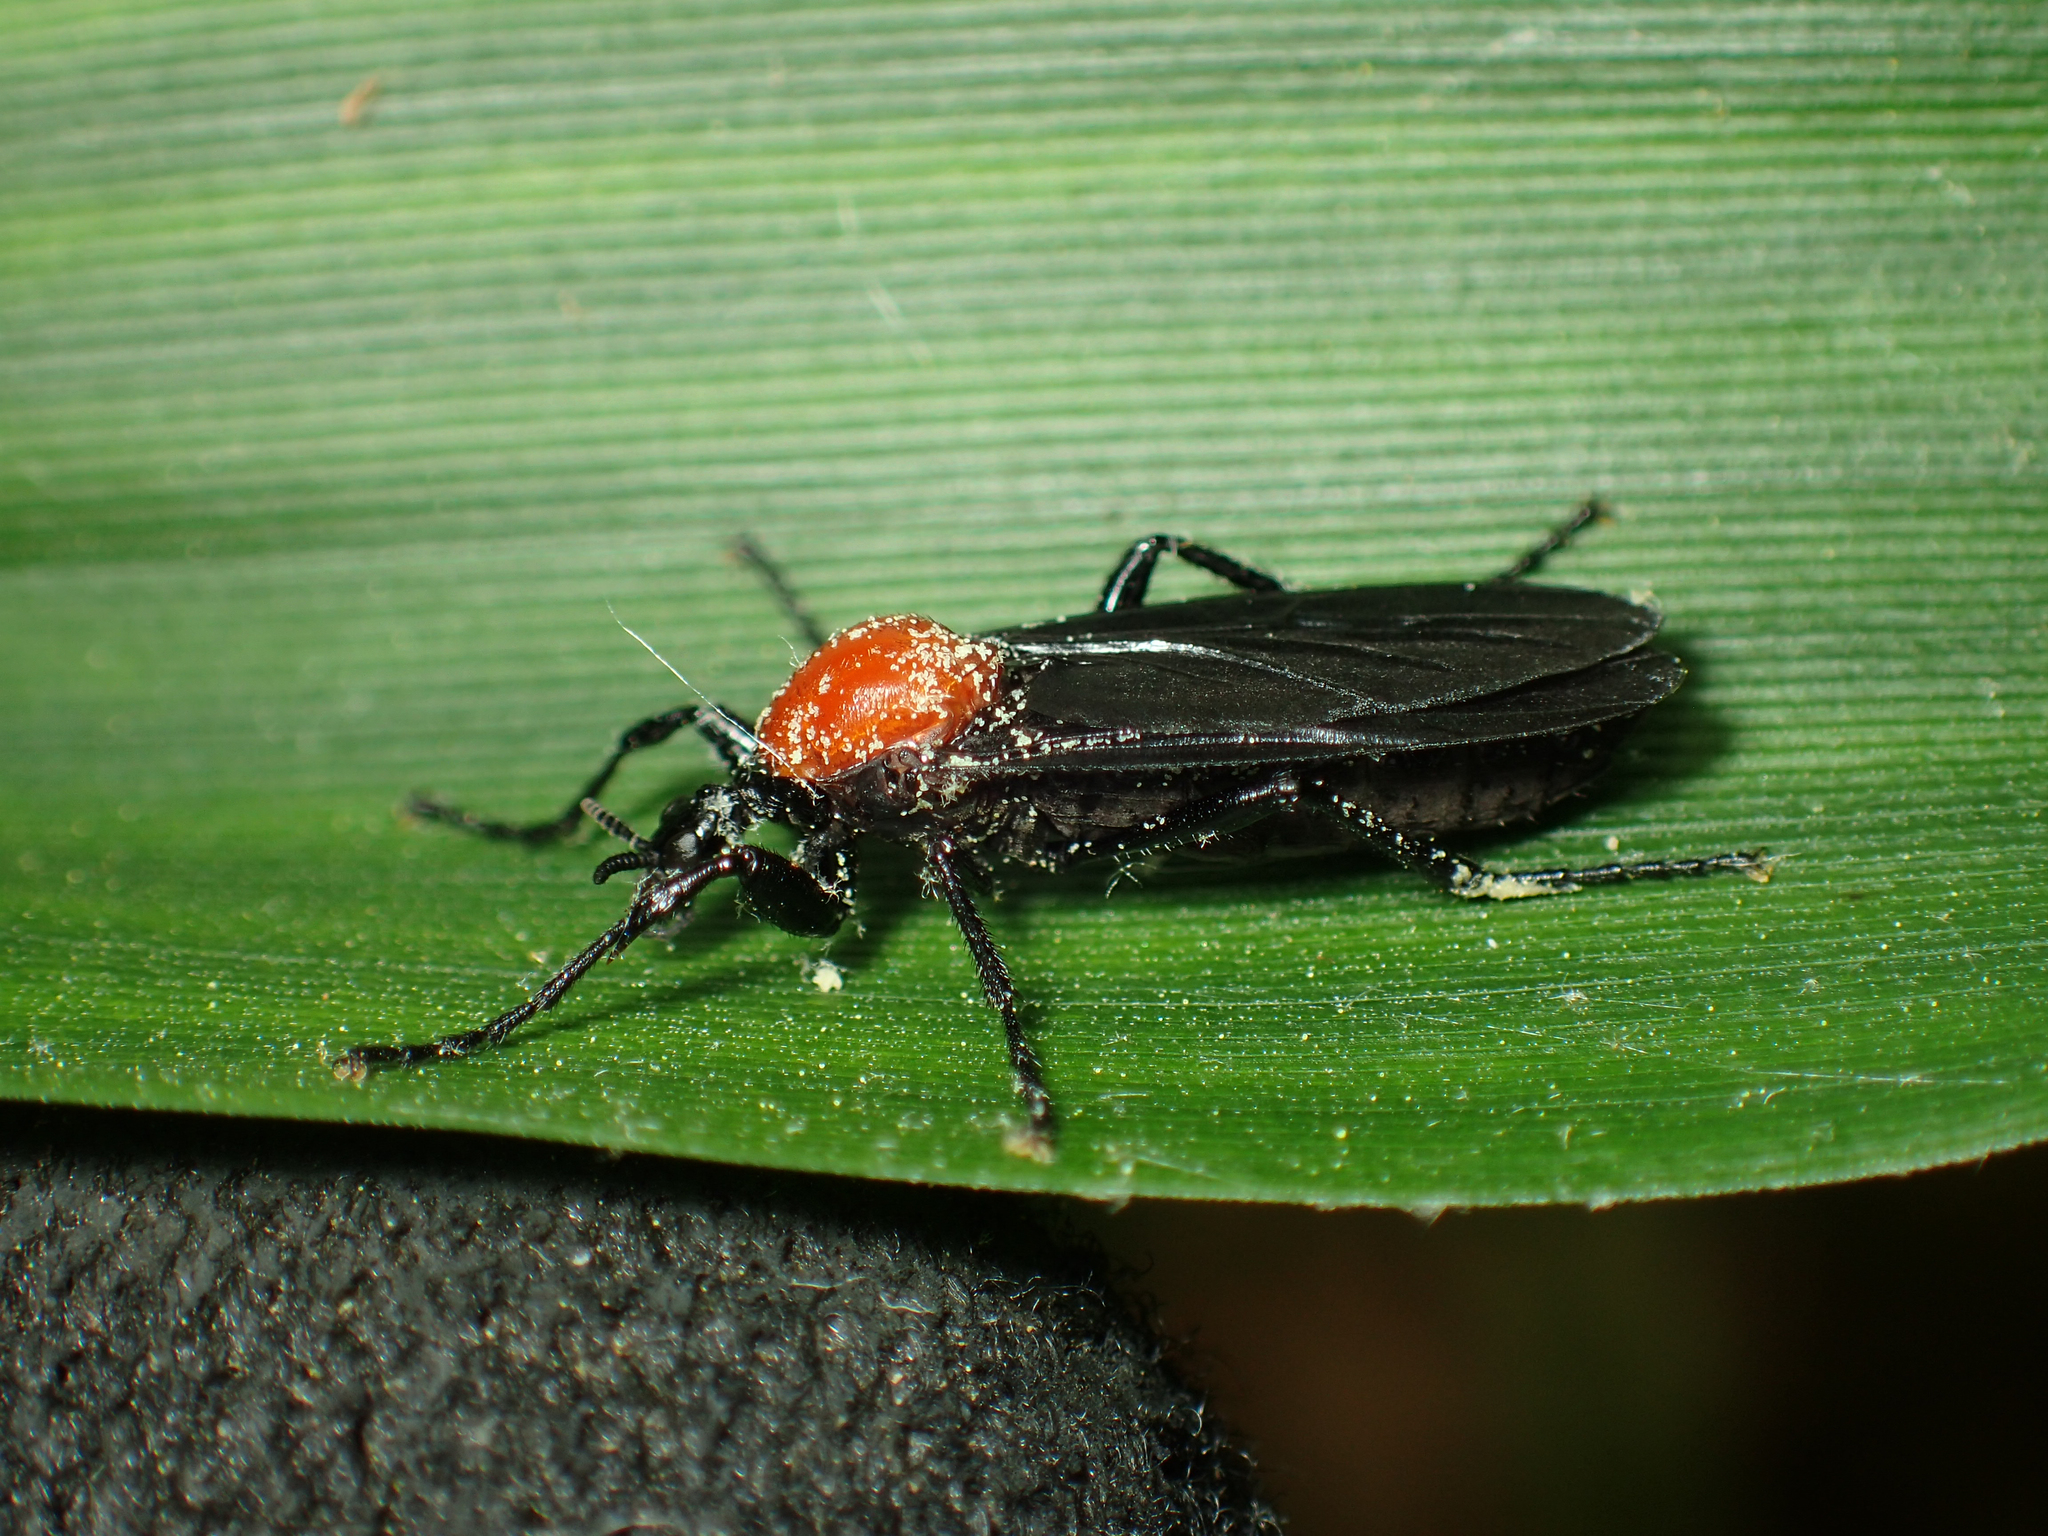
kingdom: Animalia
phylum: Arthropoda
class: Insecta
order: Diptera
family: Bibionidae
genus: Bibio
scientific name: Bibio superfluus
